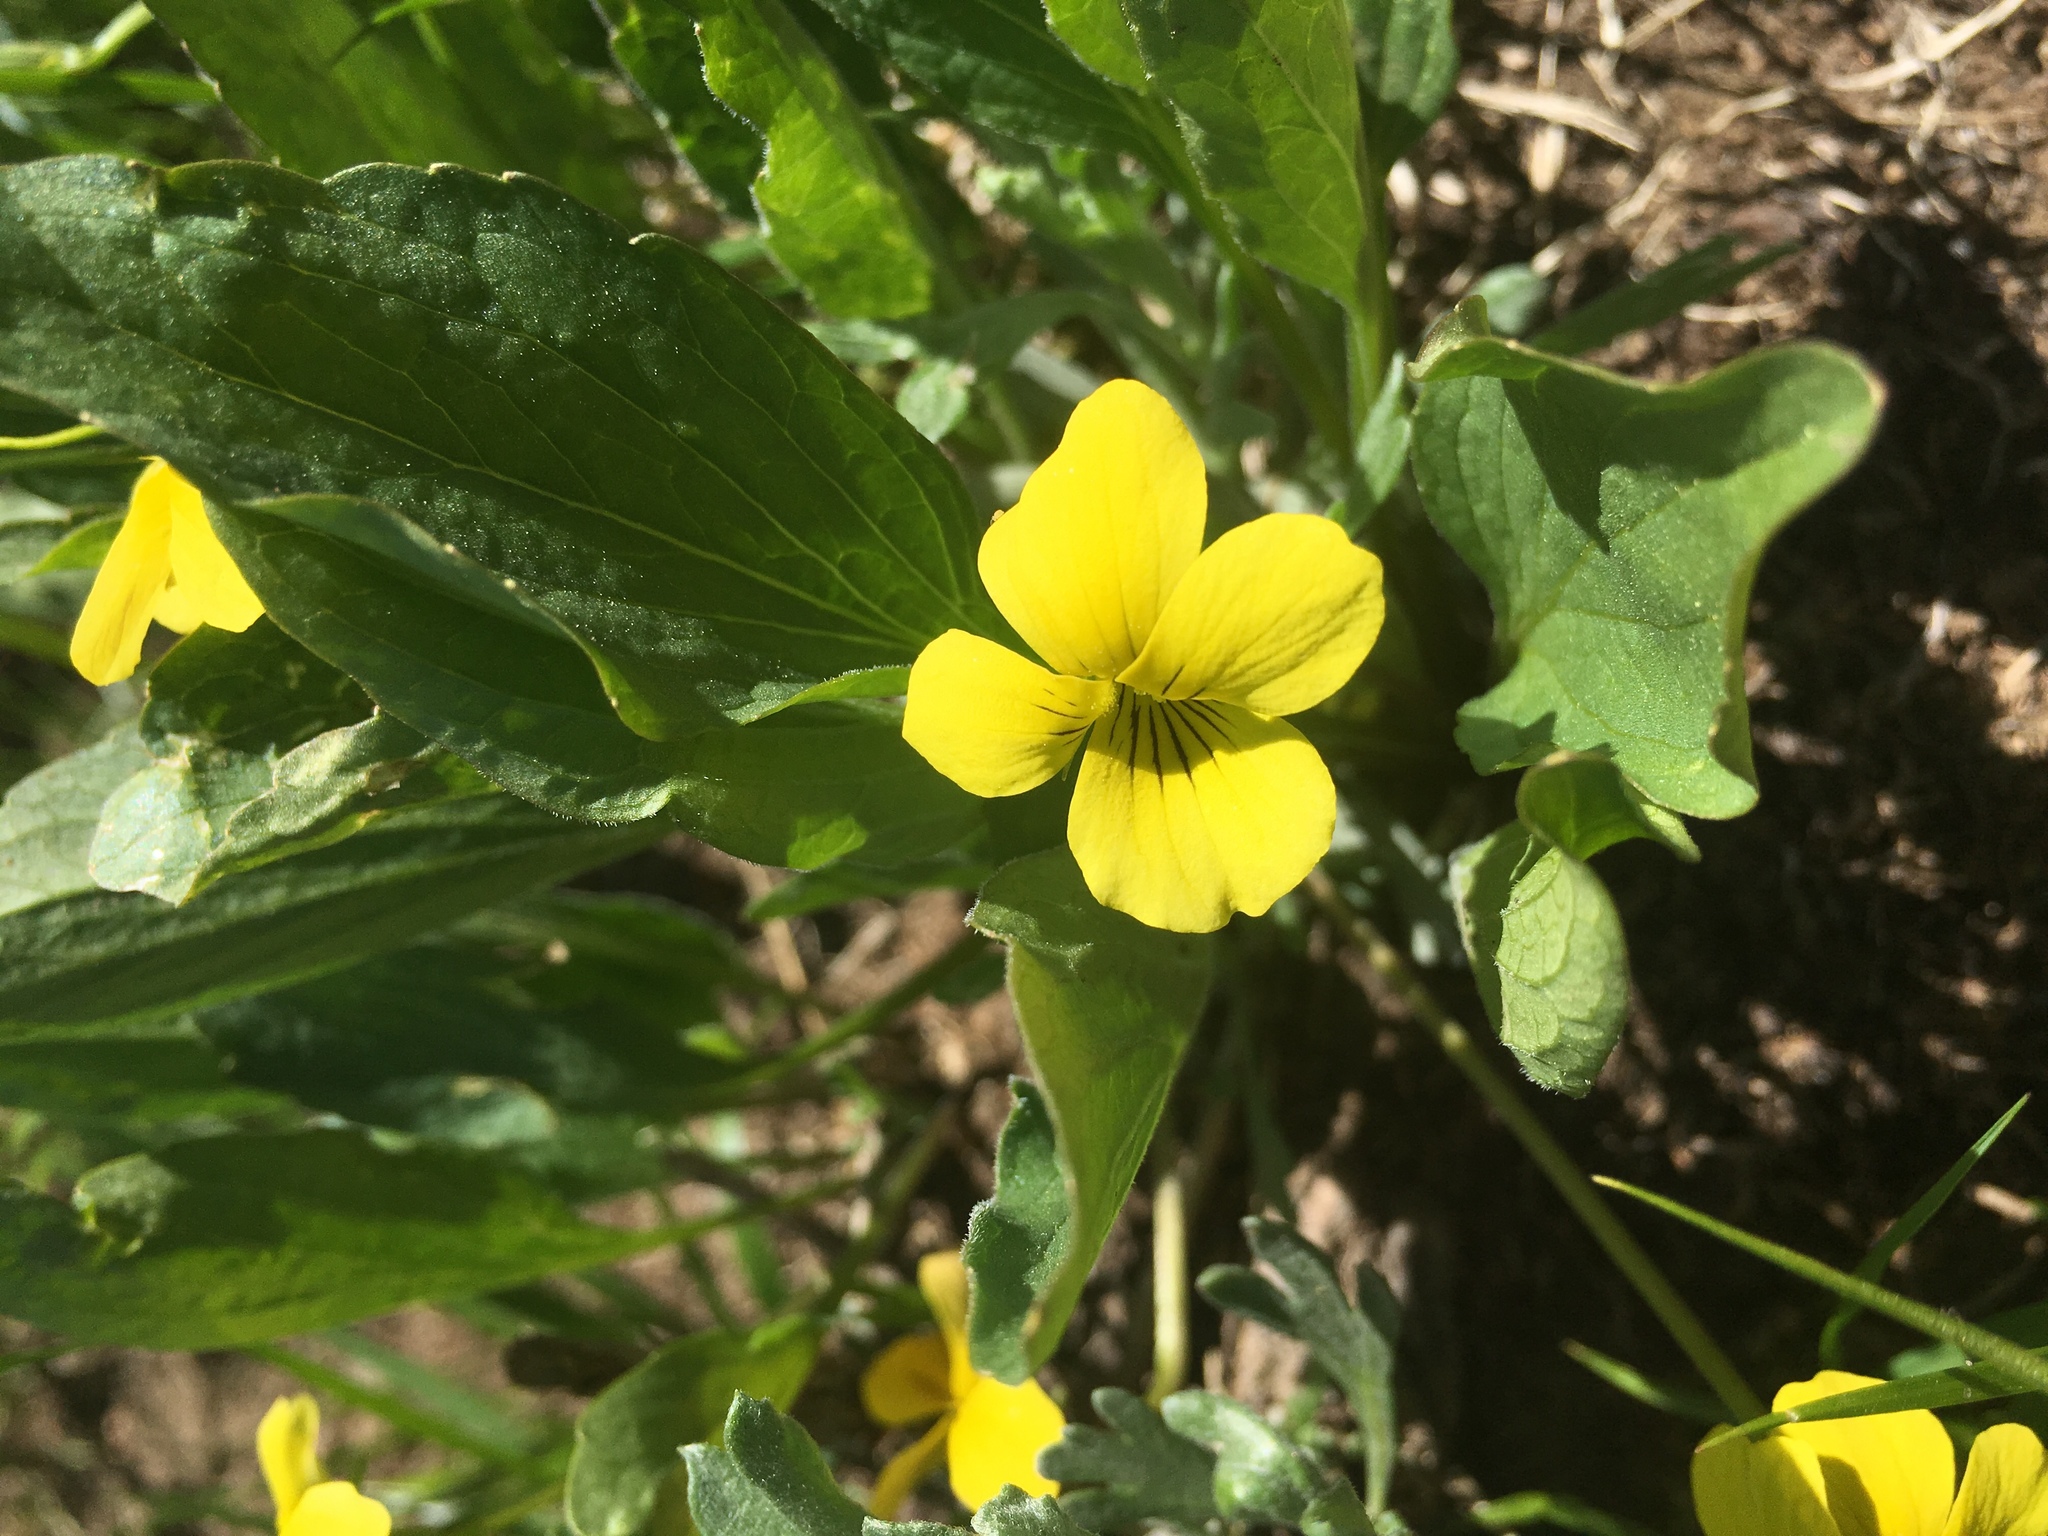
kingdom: Plantae
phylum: Tracheophyta
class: Magnoliopsida
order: Malpighiales
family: Violaceae
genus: Viola
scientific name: Viola nuttallii
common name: Yellow prairie violet
